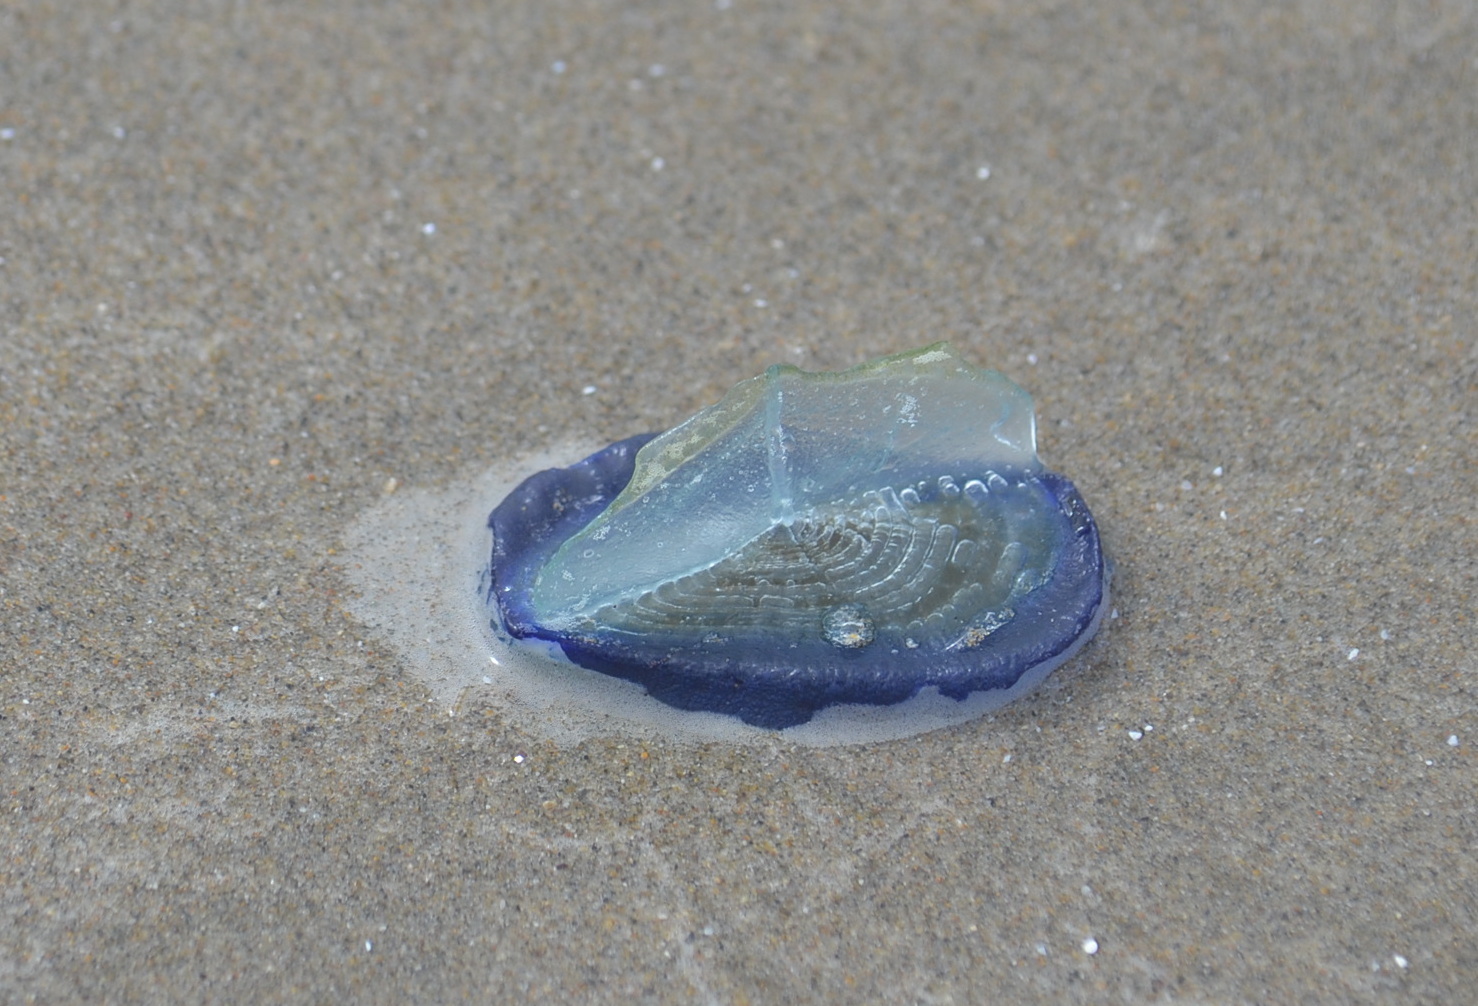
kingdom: Animalia
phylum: Cnidaria
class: Hydrozoa
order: Anthoathecata
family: Porpitidae
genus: Velella
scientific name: Velella velella
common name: By-the-wind-sailor
